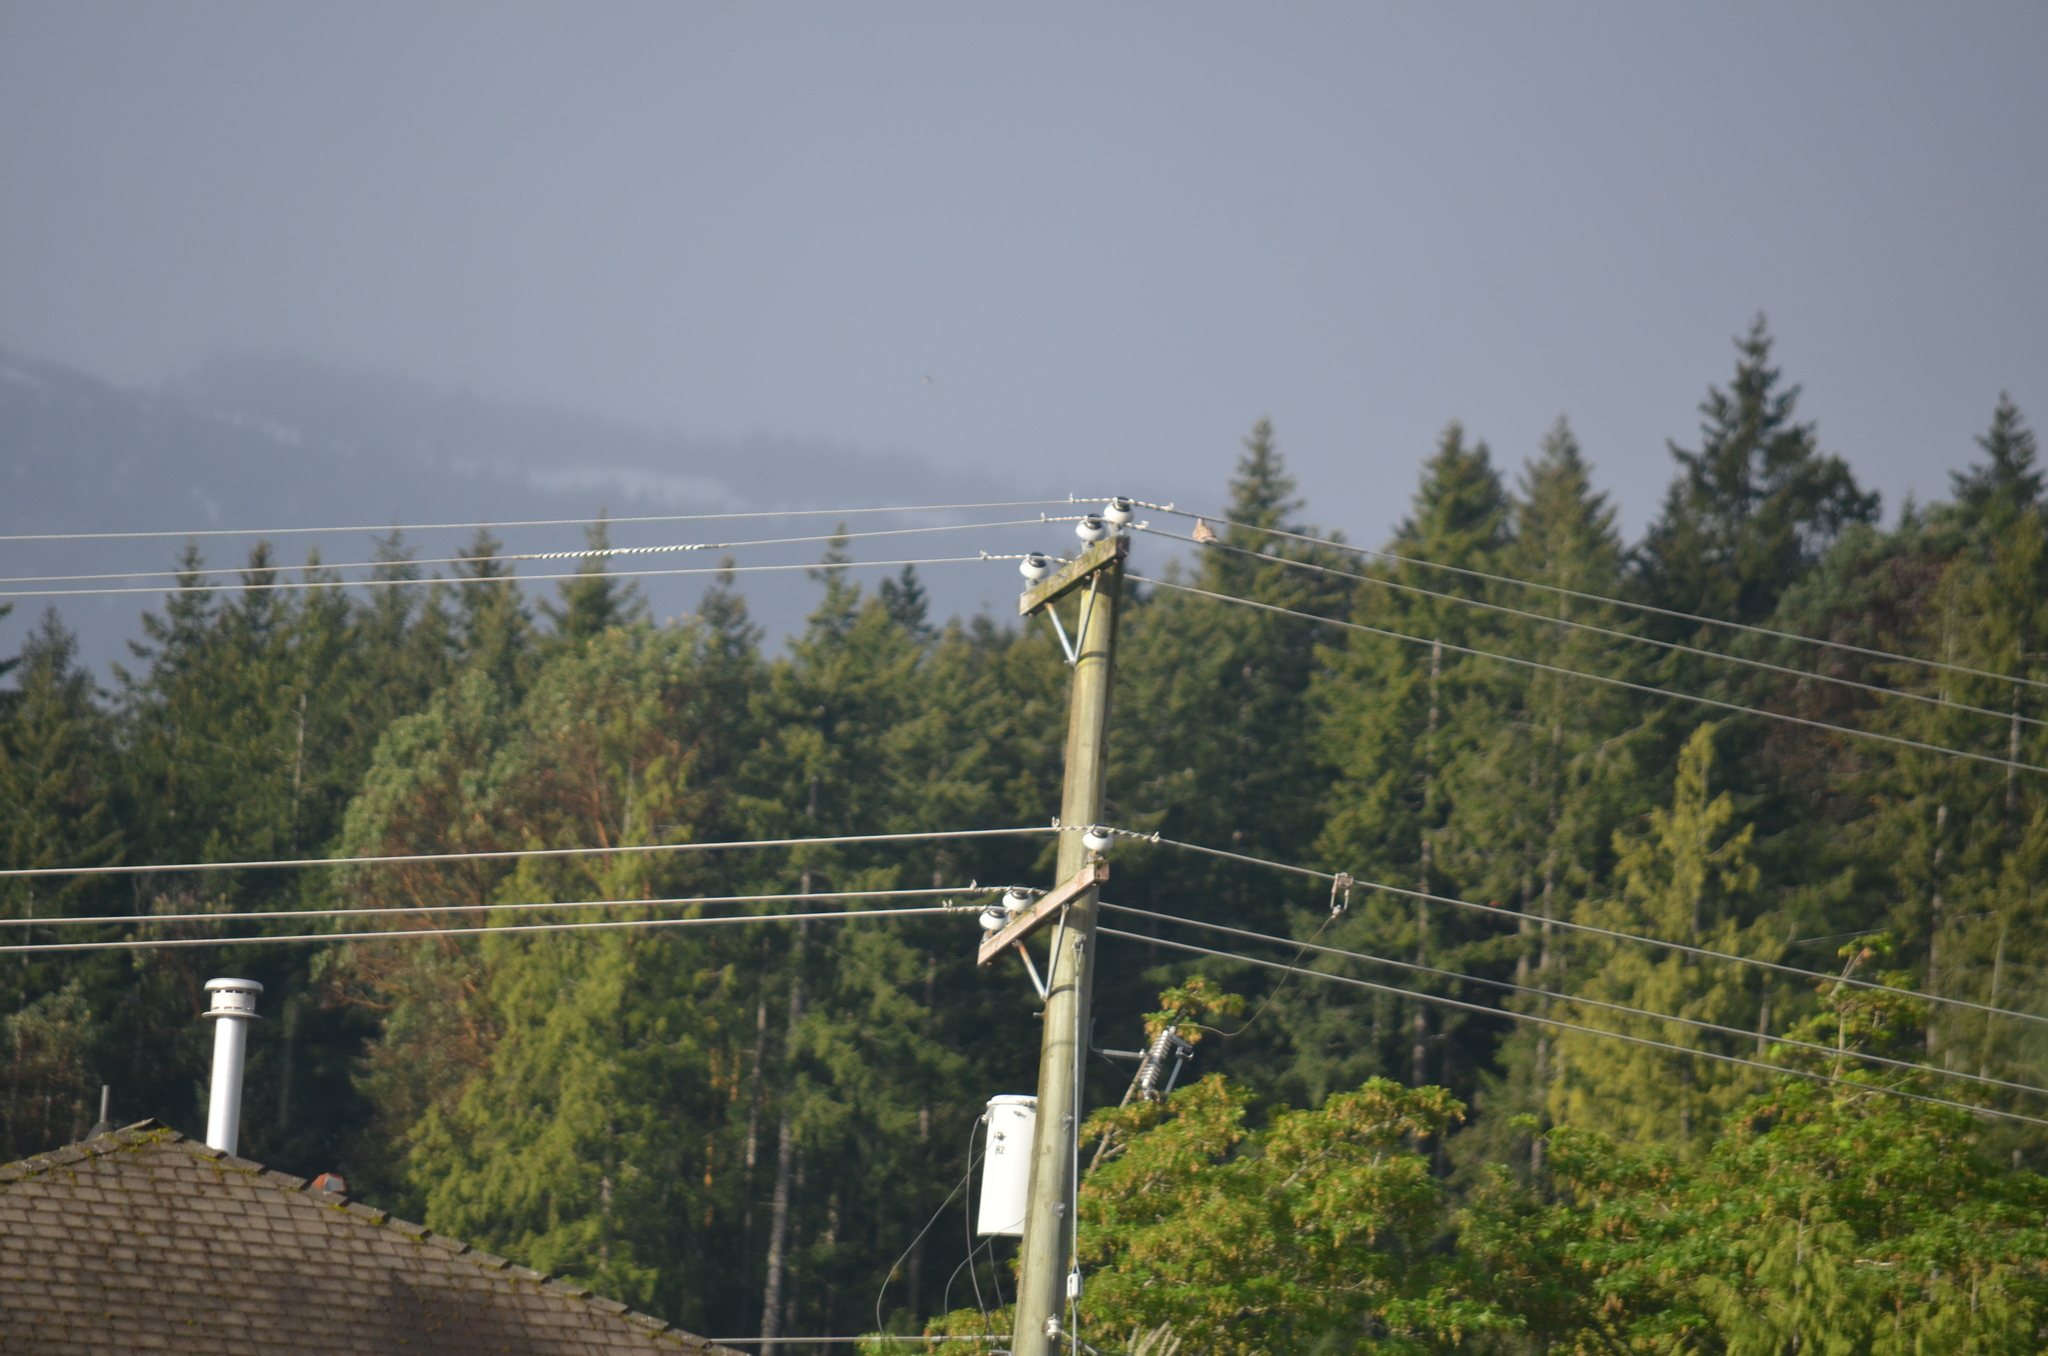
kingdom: Animalia
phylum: Chordata
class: Aves
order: Columbiformes
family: Columbidae
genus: Streptopelia
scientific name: Streptopelia decaocto
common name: Eurasian collared dove
